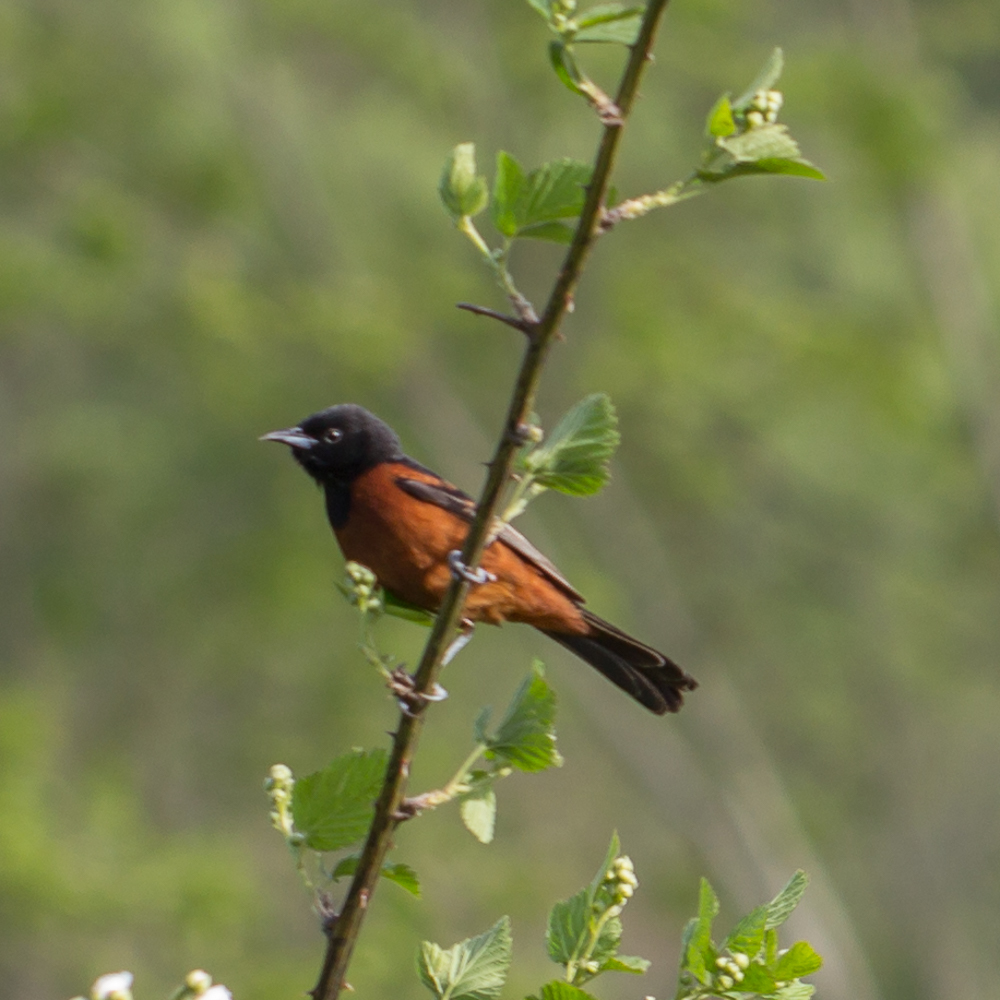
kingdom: Animalia
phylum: Chordata
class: Aves
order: Passeriformes
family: Icteridae
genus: Icterus
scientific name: Icterus spurius
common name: Orchard oriole
